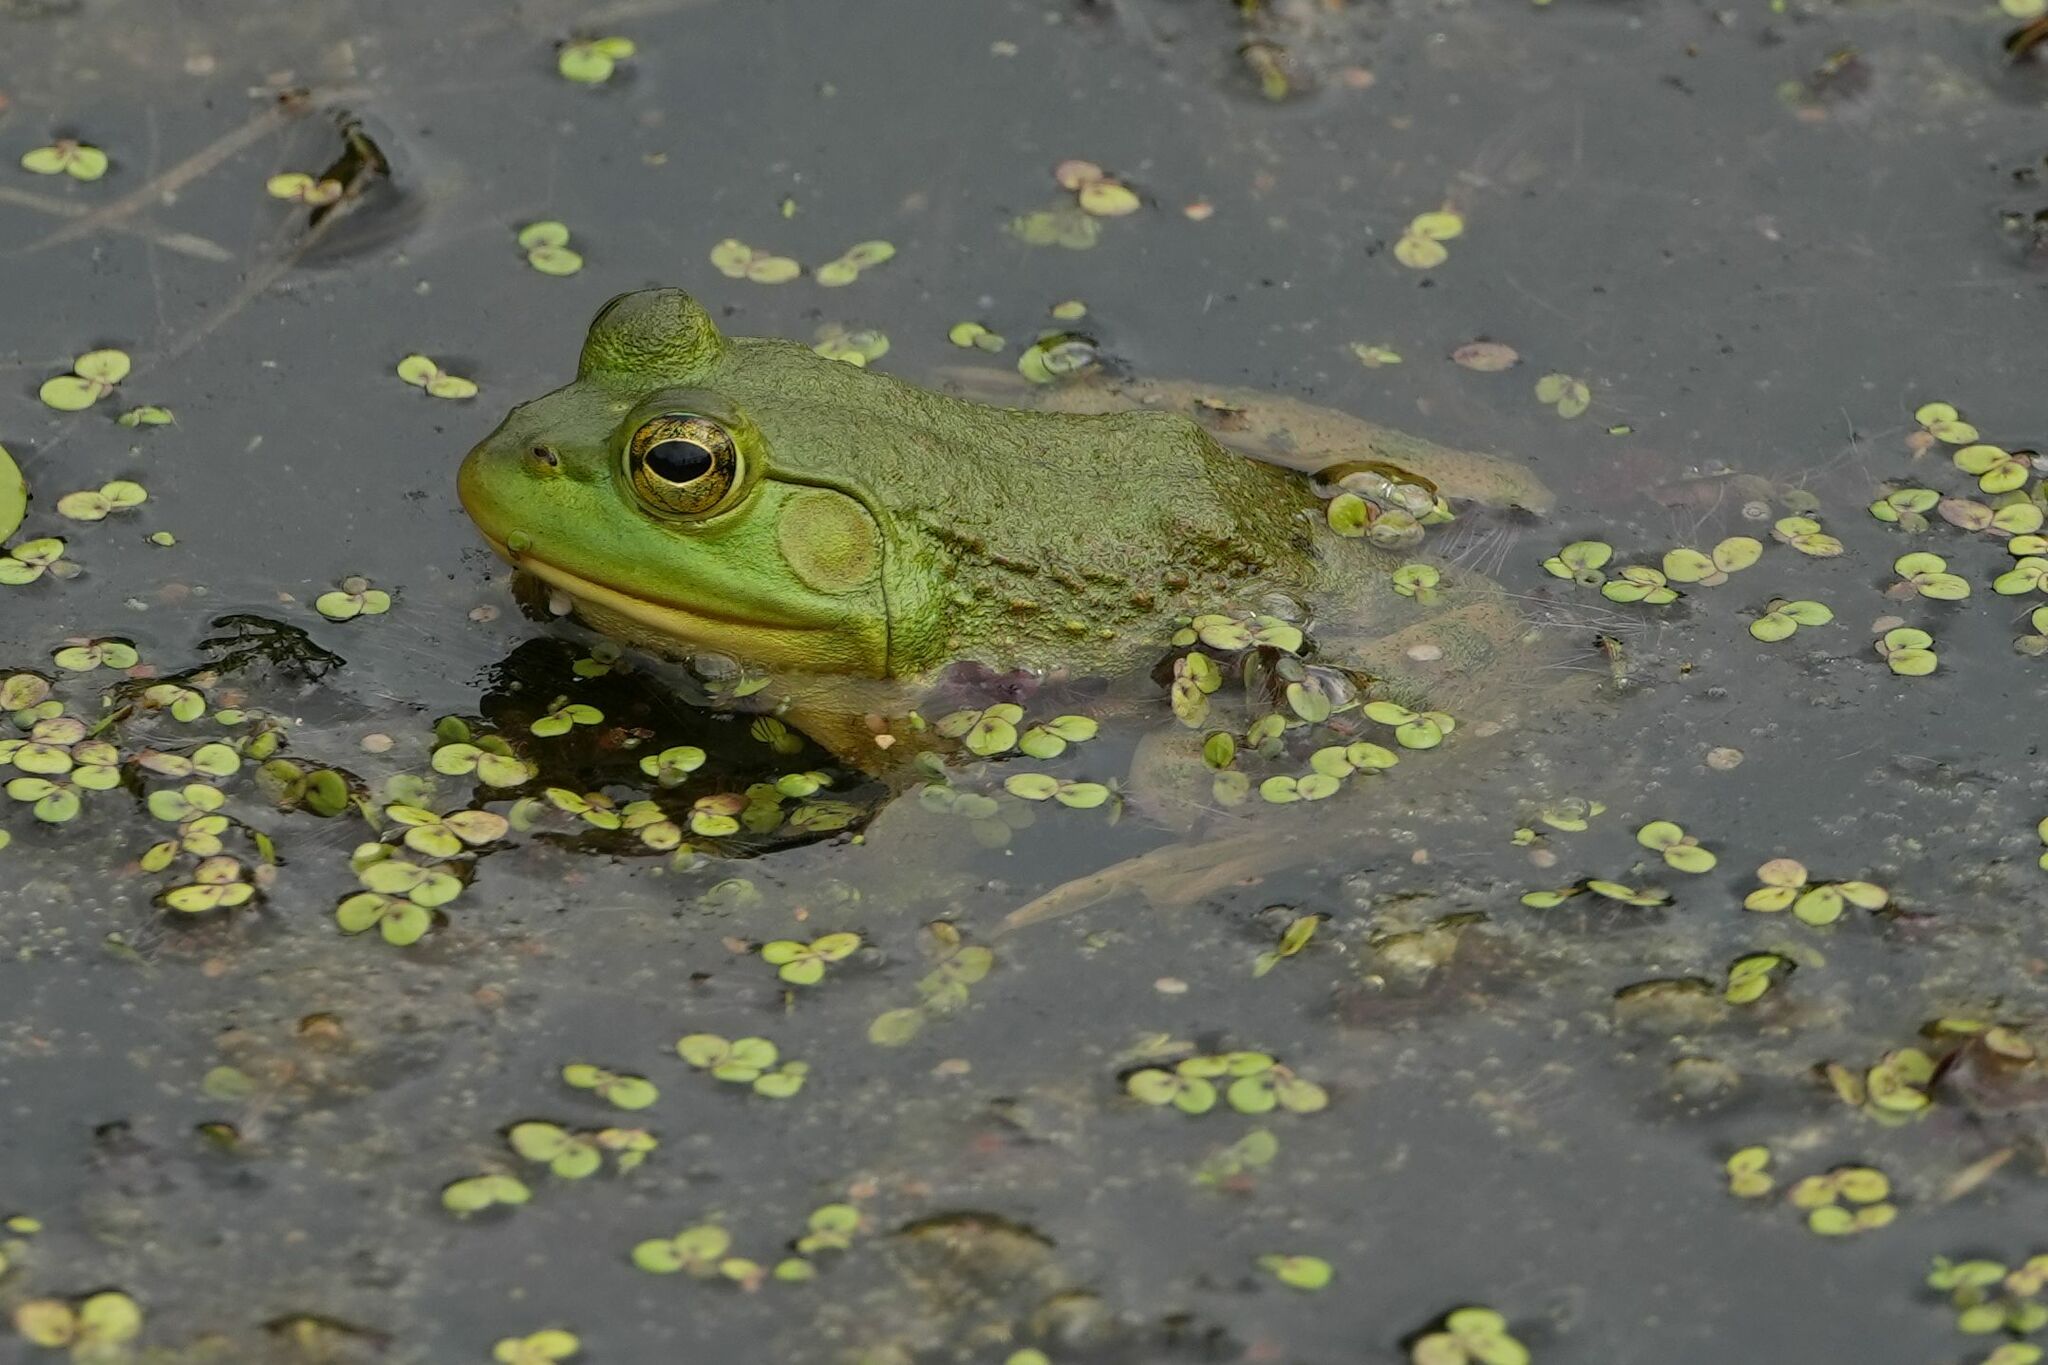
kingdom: Animalia
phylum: Chordata
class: Amphibia
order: Anura
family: Ranidae
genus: Lithobates
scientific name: Lithobates catesbeianus
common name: American bullfrog
